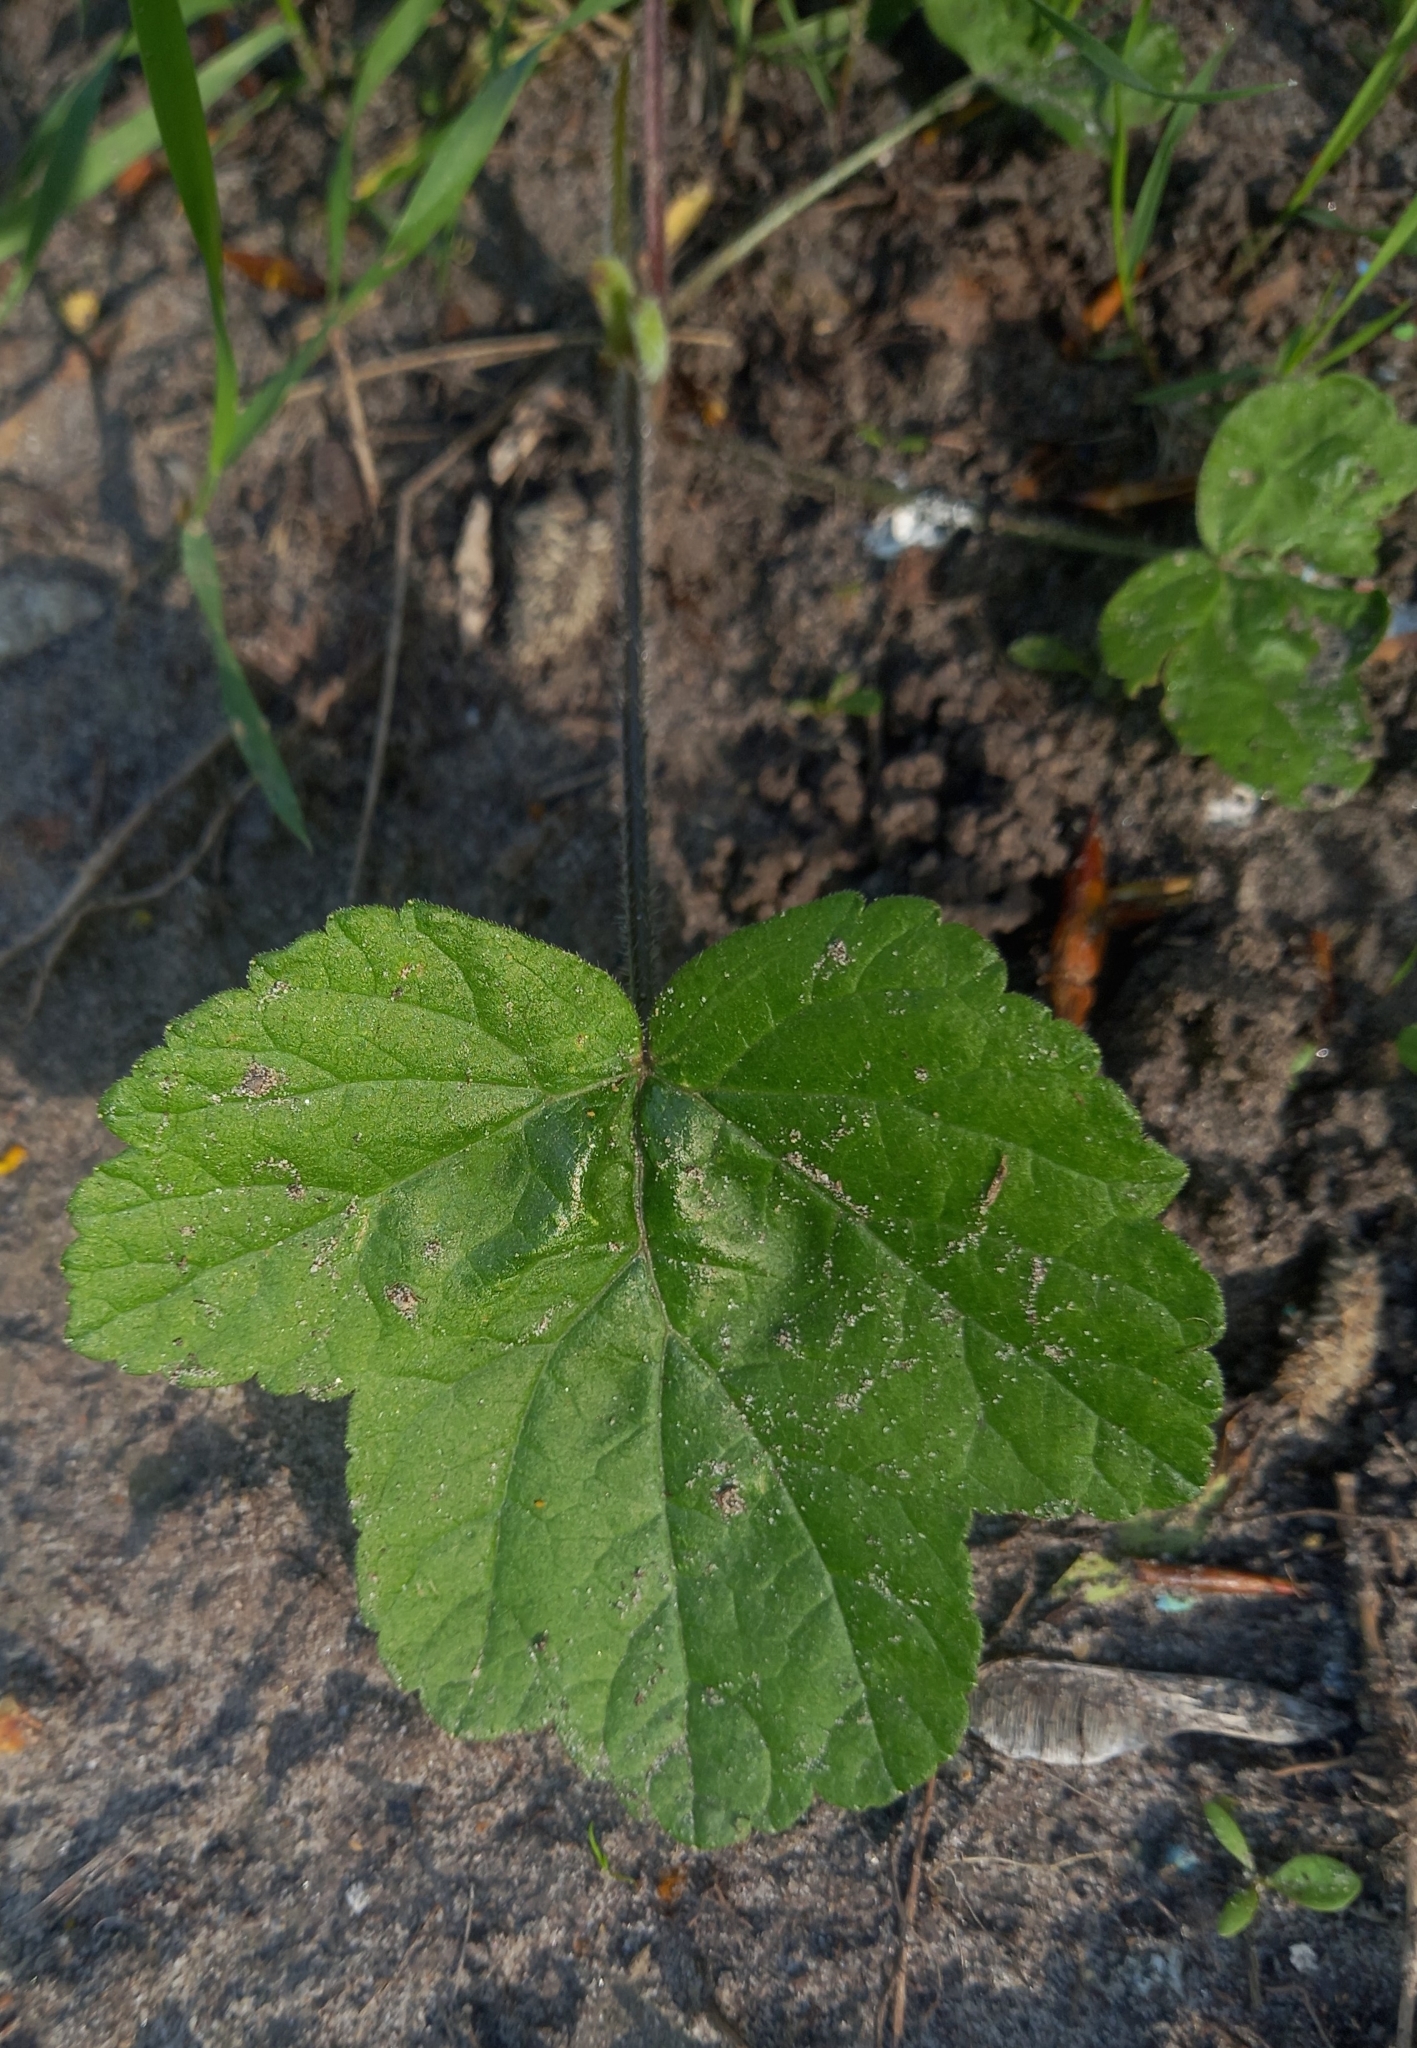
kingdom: Plantae
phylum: Tracheophyta
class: Magnoliopsida
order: Apiales
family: Apiaceae
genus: Heracleum
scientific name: Heracleum sphondylium
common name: Hogweed
